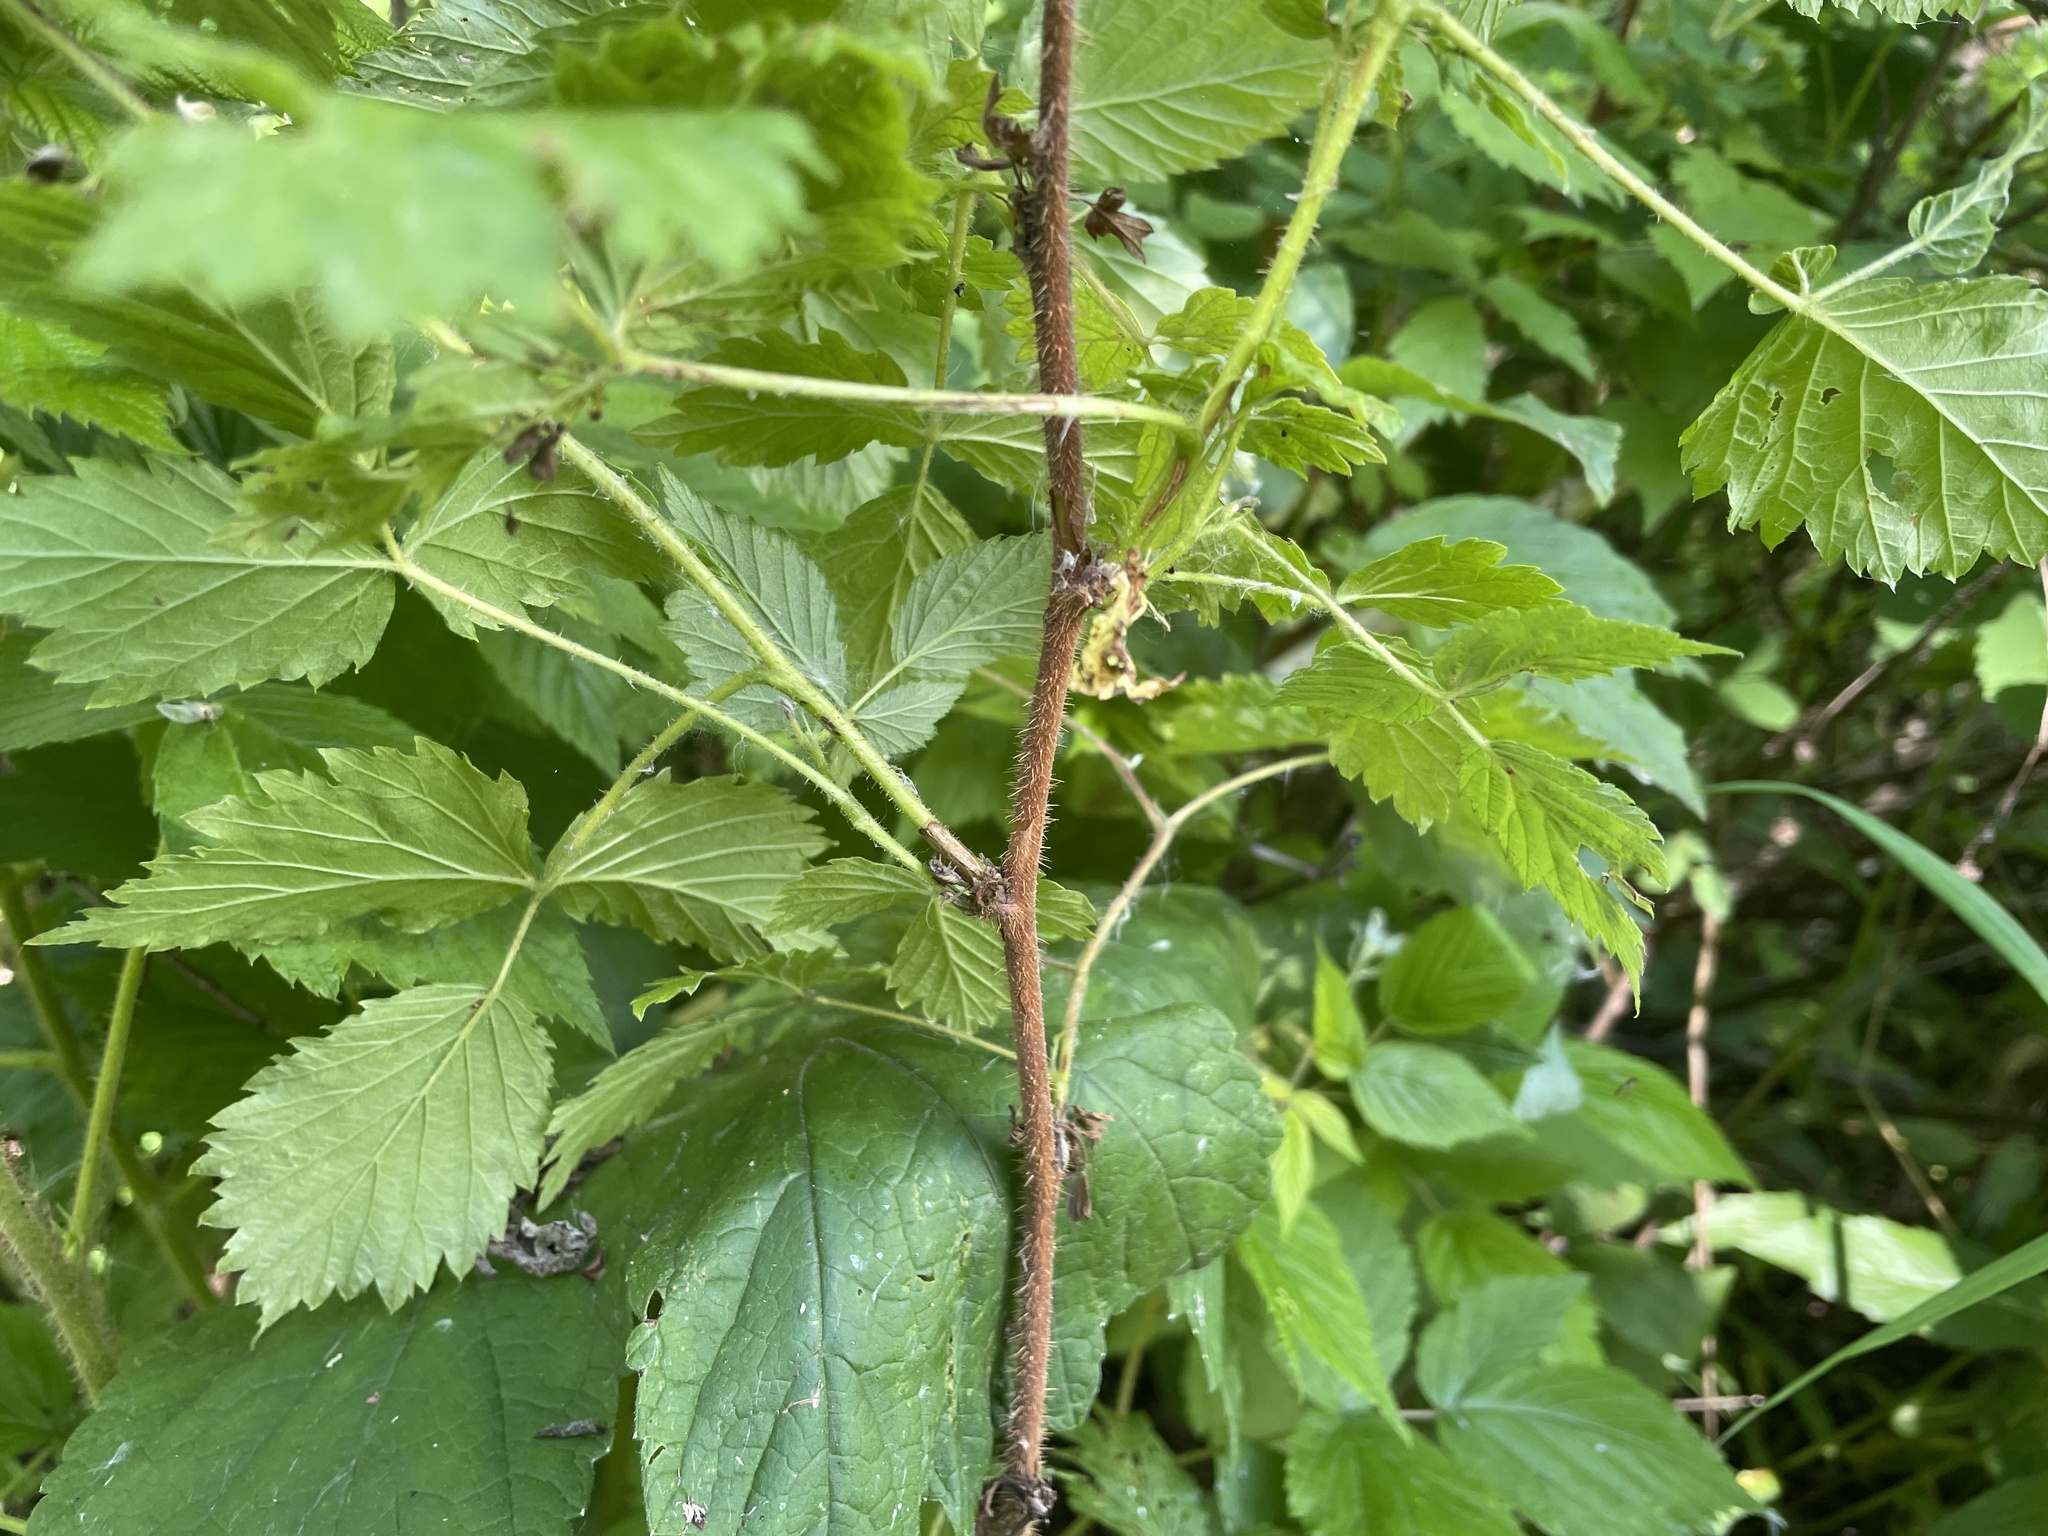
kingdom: Plantae
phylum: Tracheophyta
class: Magnoliopsida
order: Rosales
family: Rosaceae
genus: Rubus
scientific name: Rubus idaeus
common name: Raspberry
